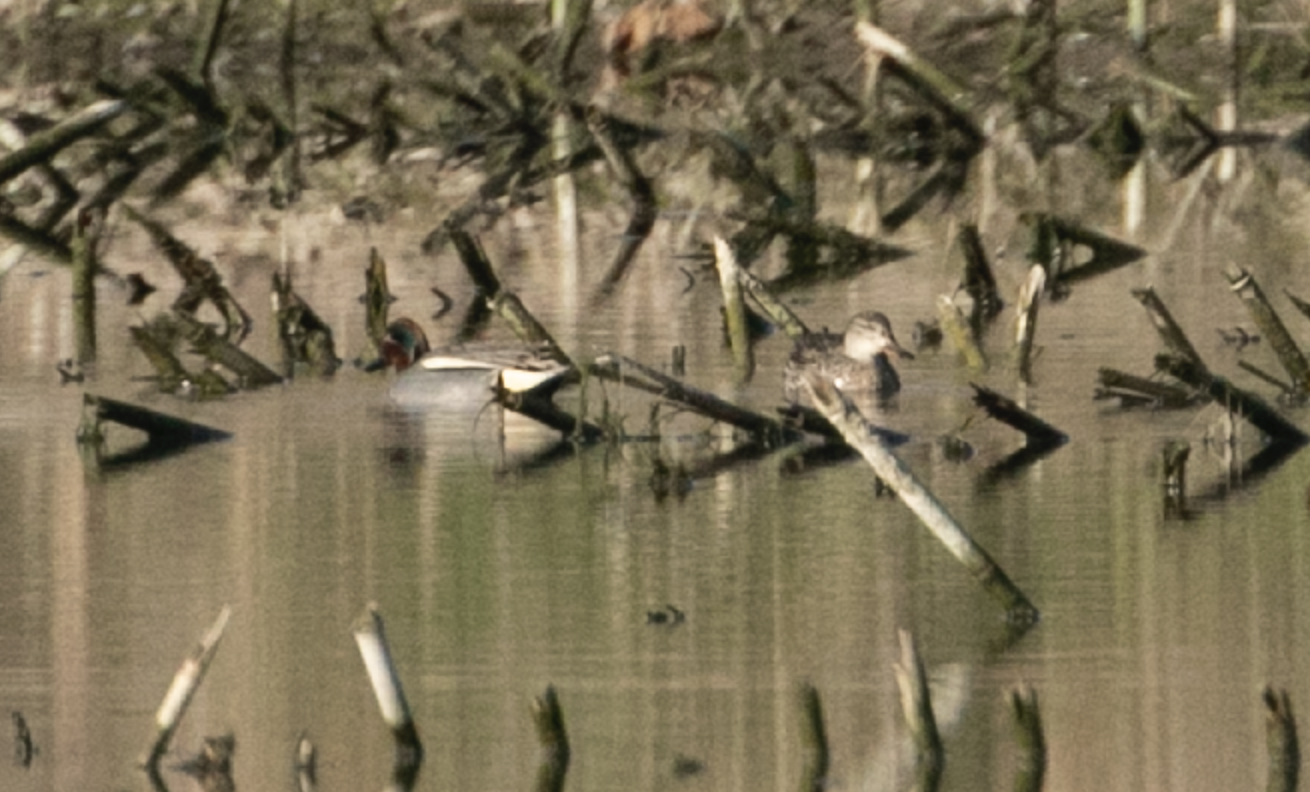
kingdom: Animalia
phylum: Chordata
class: Aves
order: Anseriformes
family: Anatidae
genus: Anas
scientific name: Anas crecca
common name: Eurasian teal
